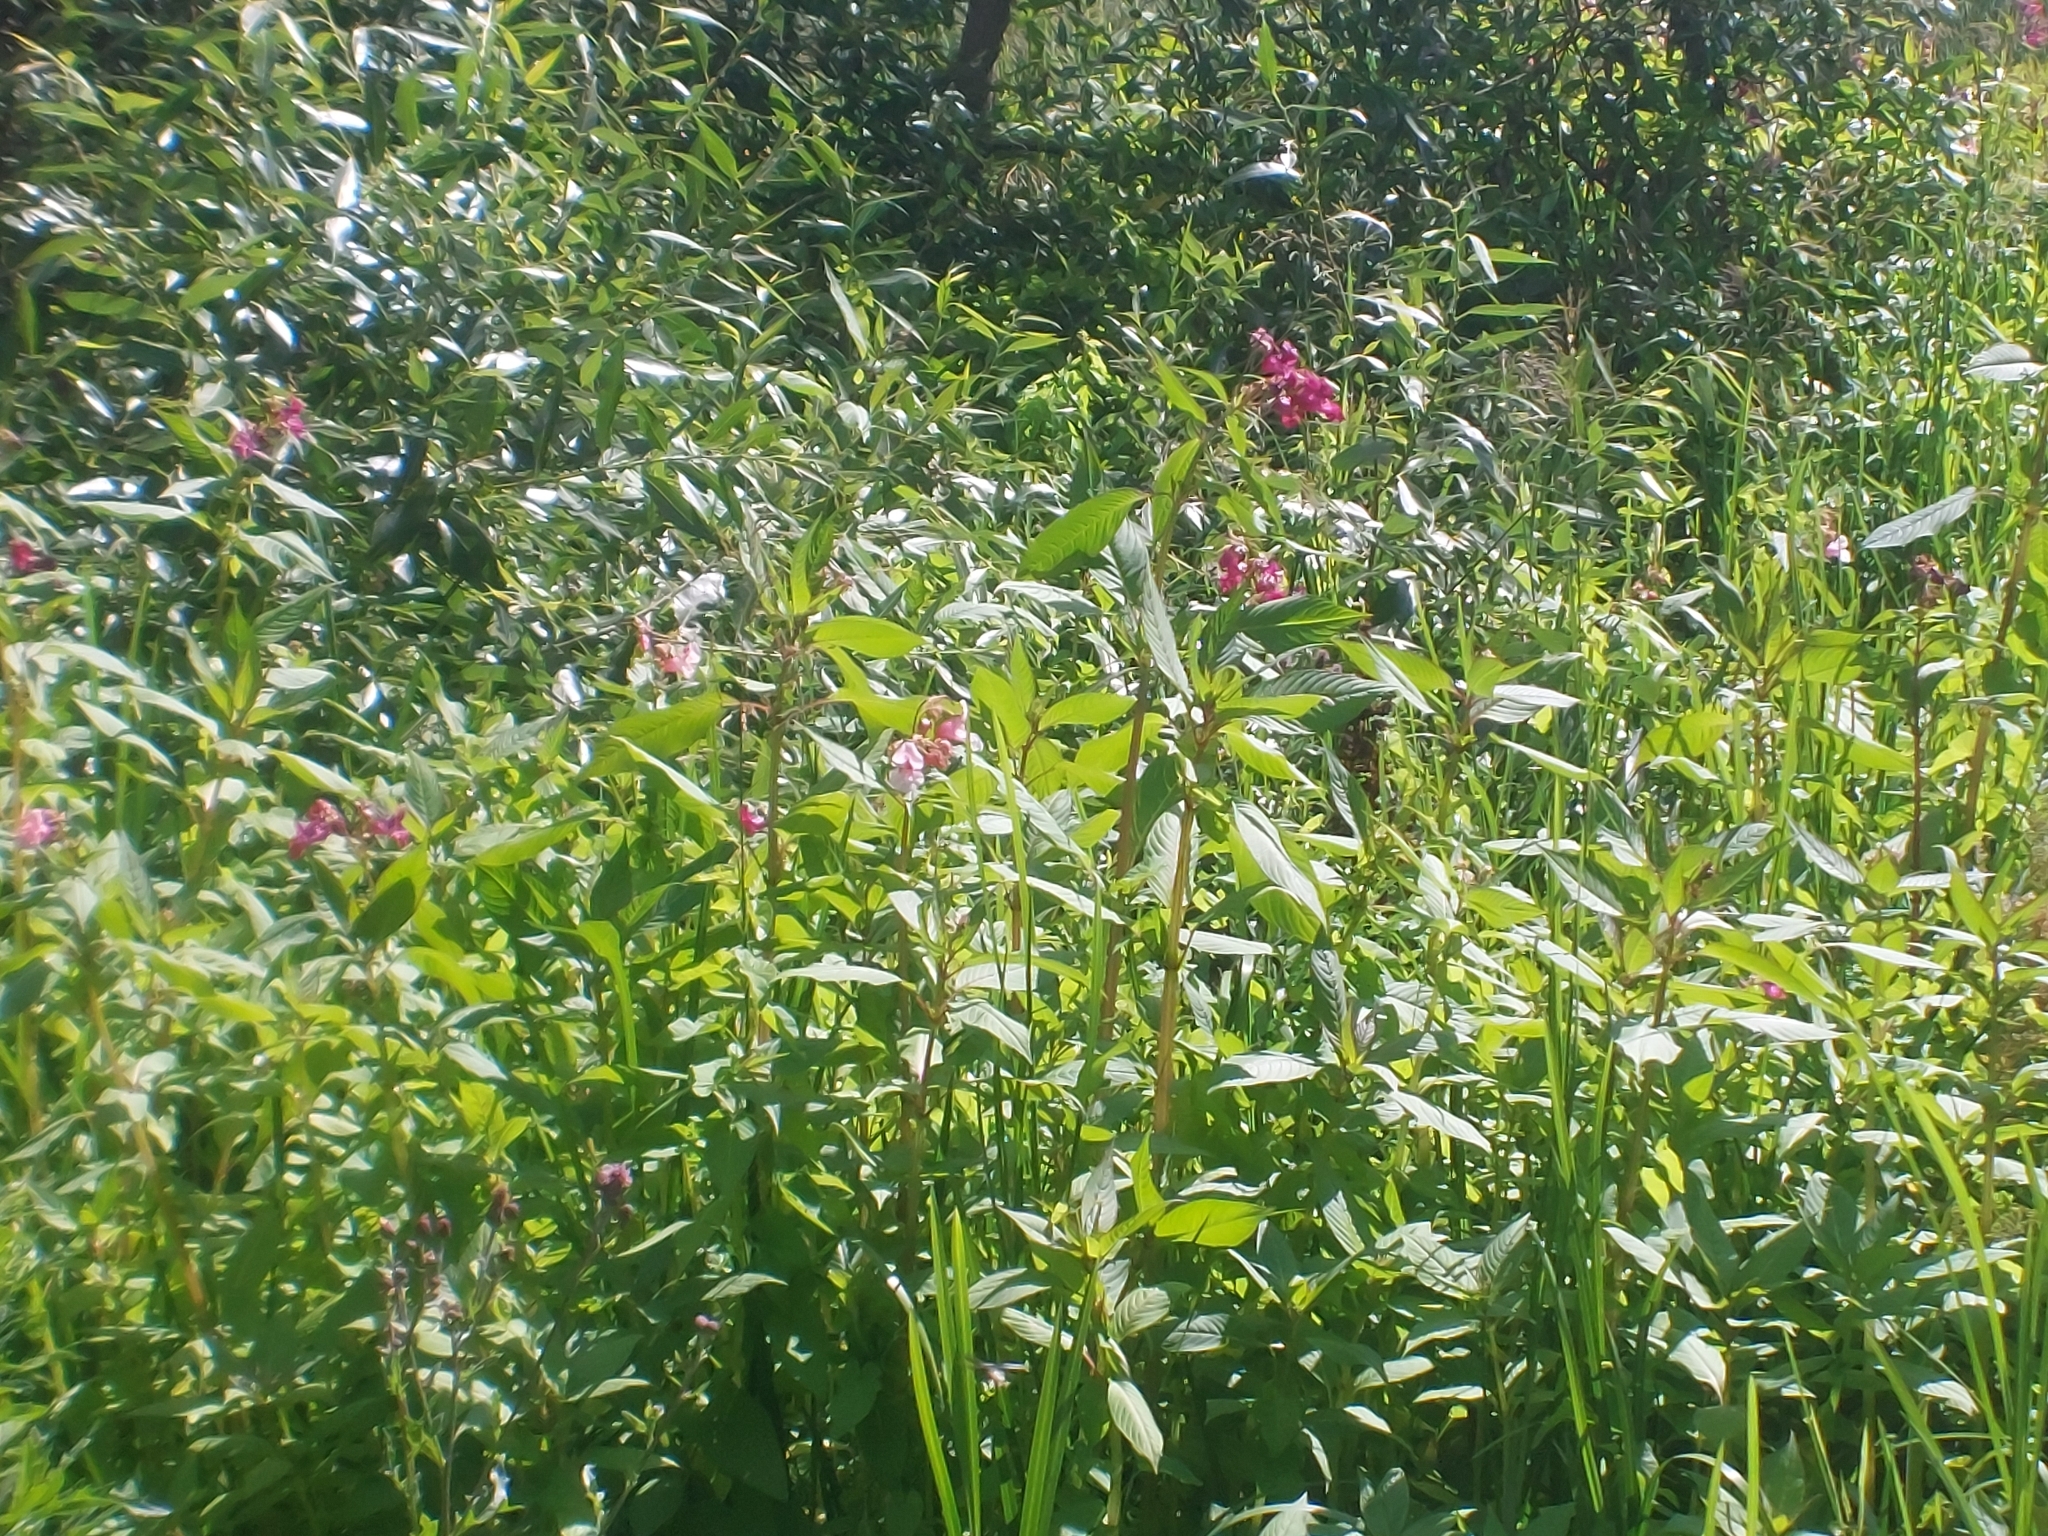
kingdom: Plantae
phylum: Tracheophyta
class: Magnoliopsida
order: Ericales
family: Balsaminaceae
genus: Impatiens
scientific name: Impatiens glandulifera
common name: Himalayan balsam
